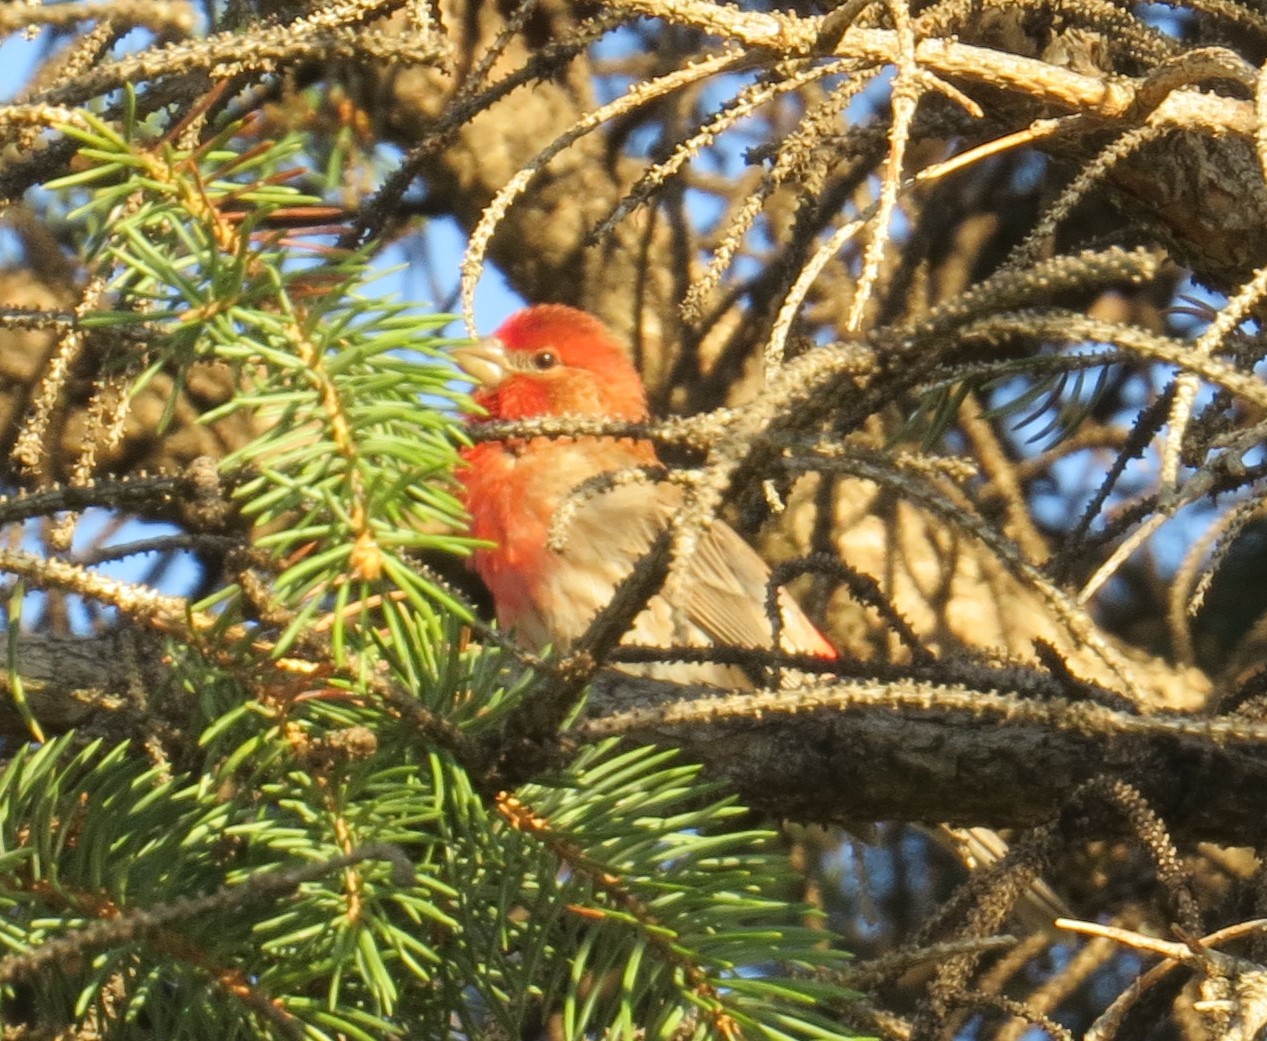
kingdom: Animalia
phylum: Chordata
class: Aves
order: Passeriformes
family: Fringillidae
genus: Haemorhous
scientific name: Haemorhous mexicanus
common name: House finch
